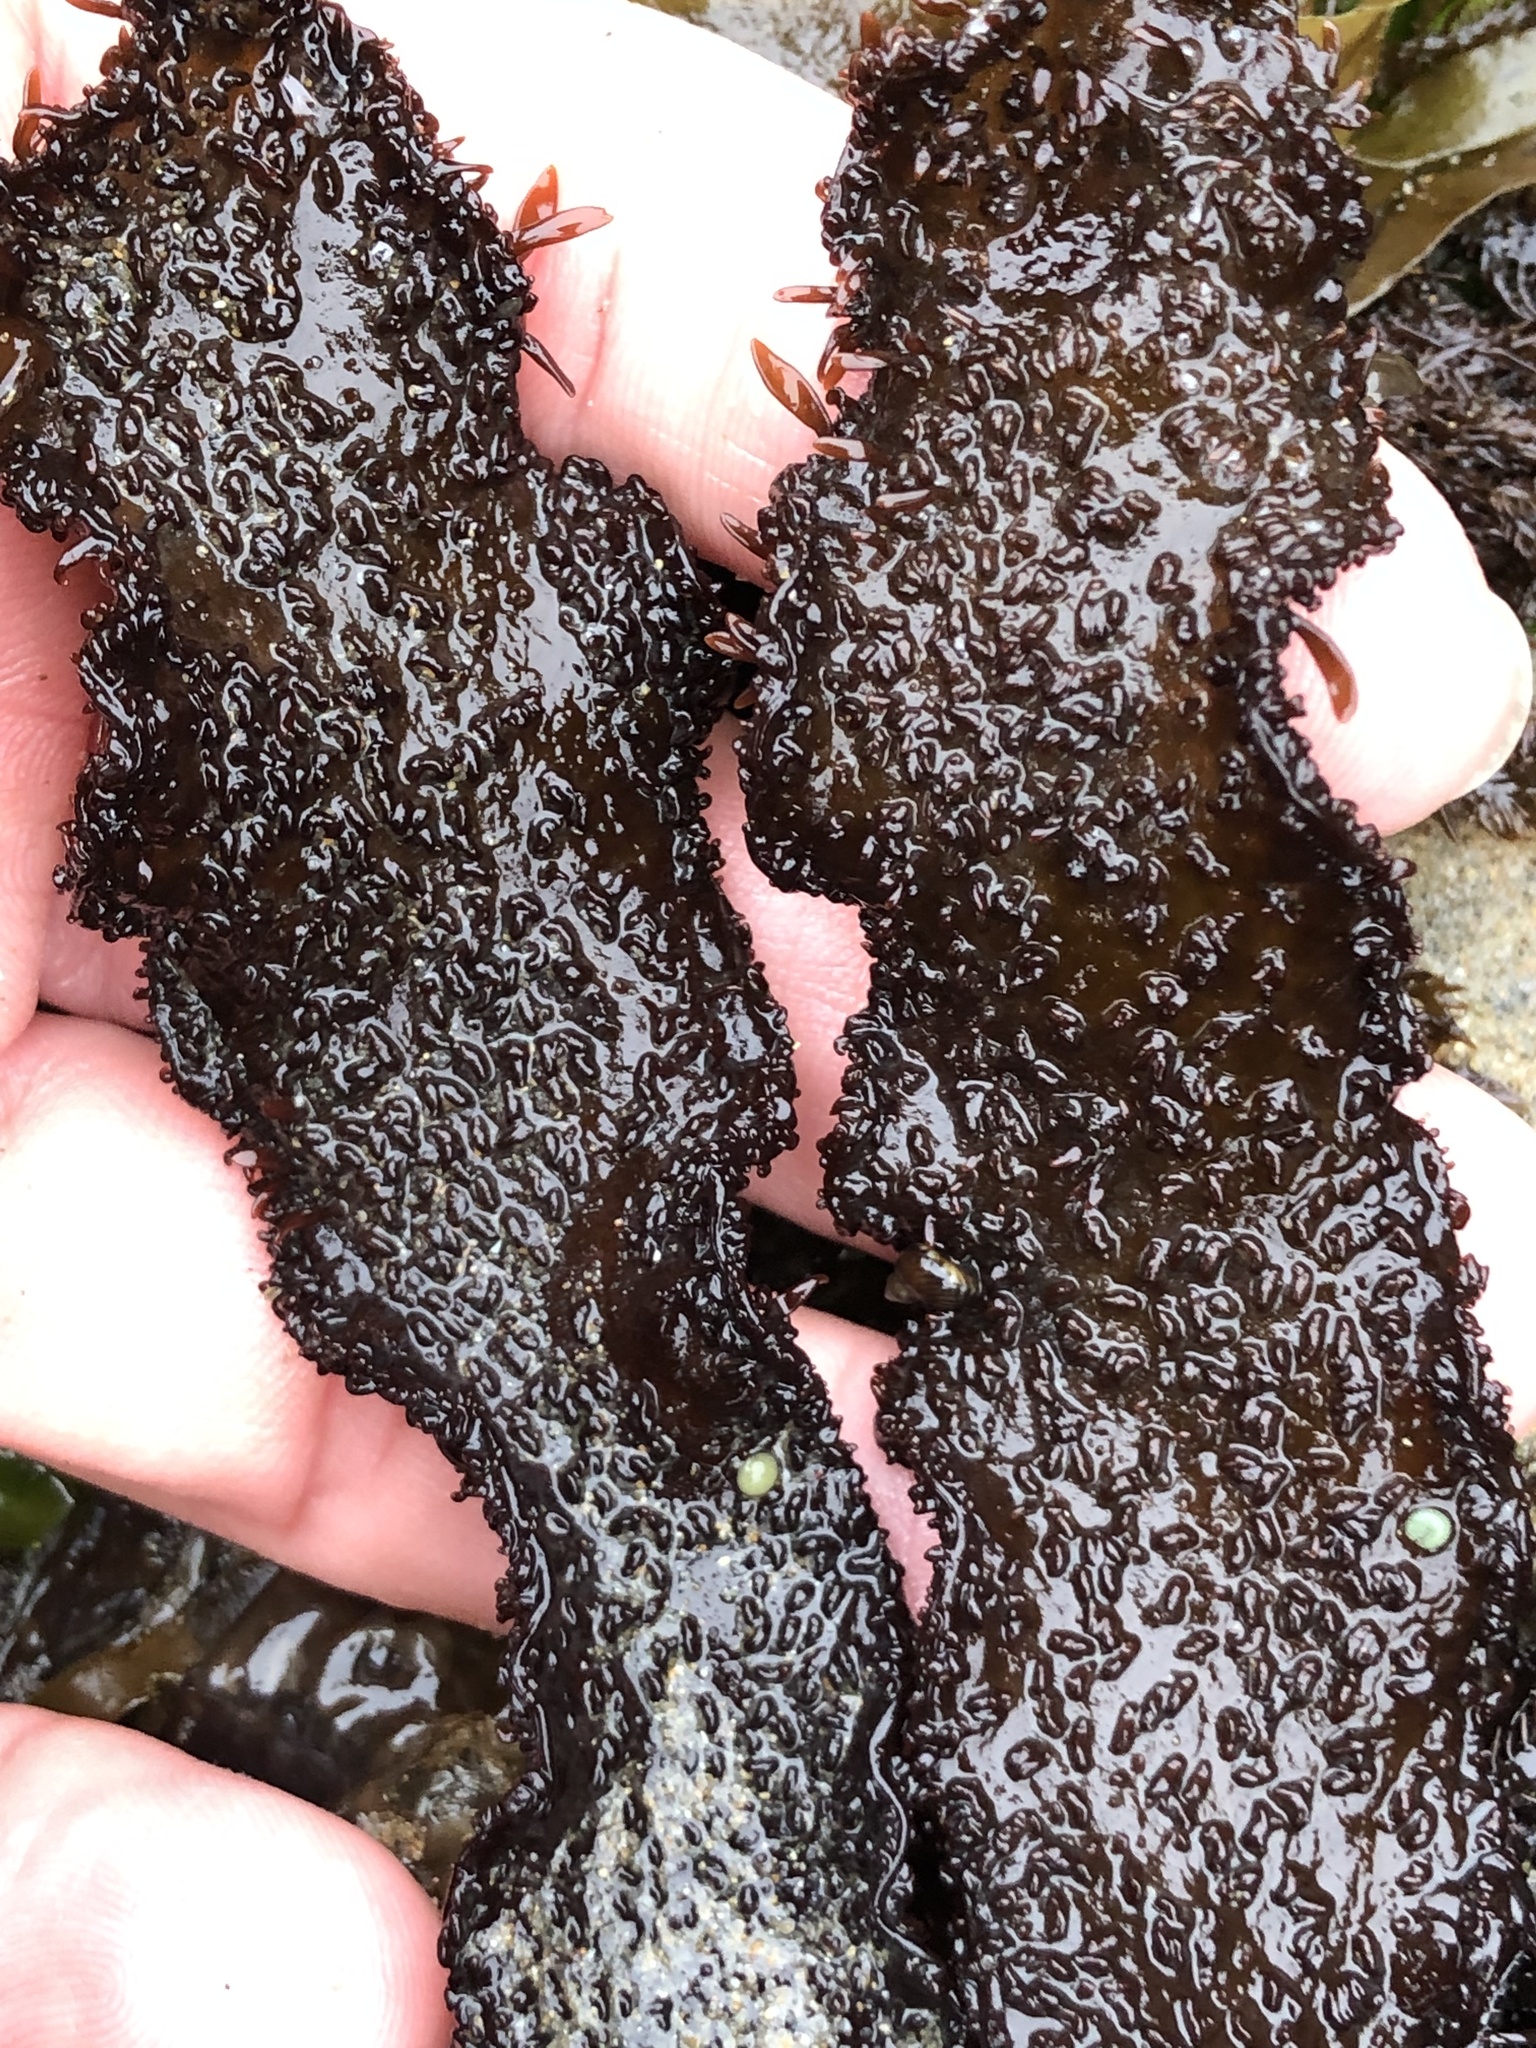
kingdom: Plantae
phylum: Rhodophyta
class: Florideophyceae
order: Gigartinales
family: Phyllophoraceae
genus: Mastocarpus
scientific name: Mastocarpus papillatus
